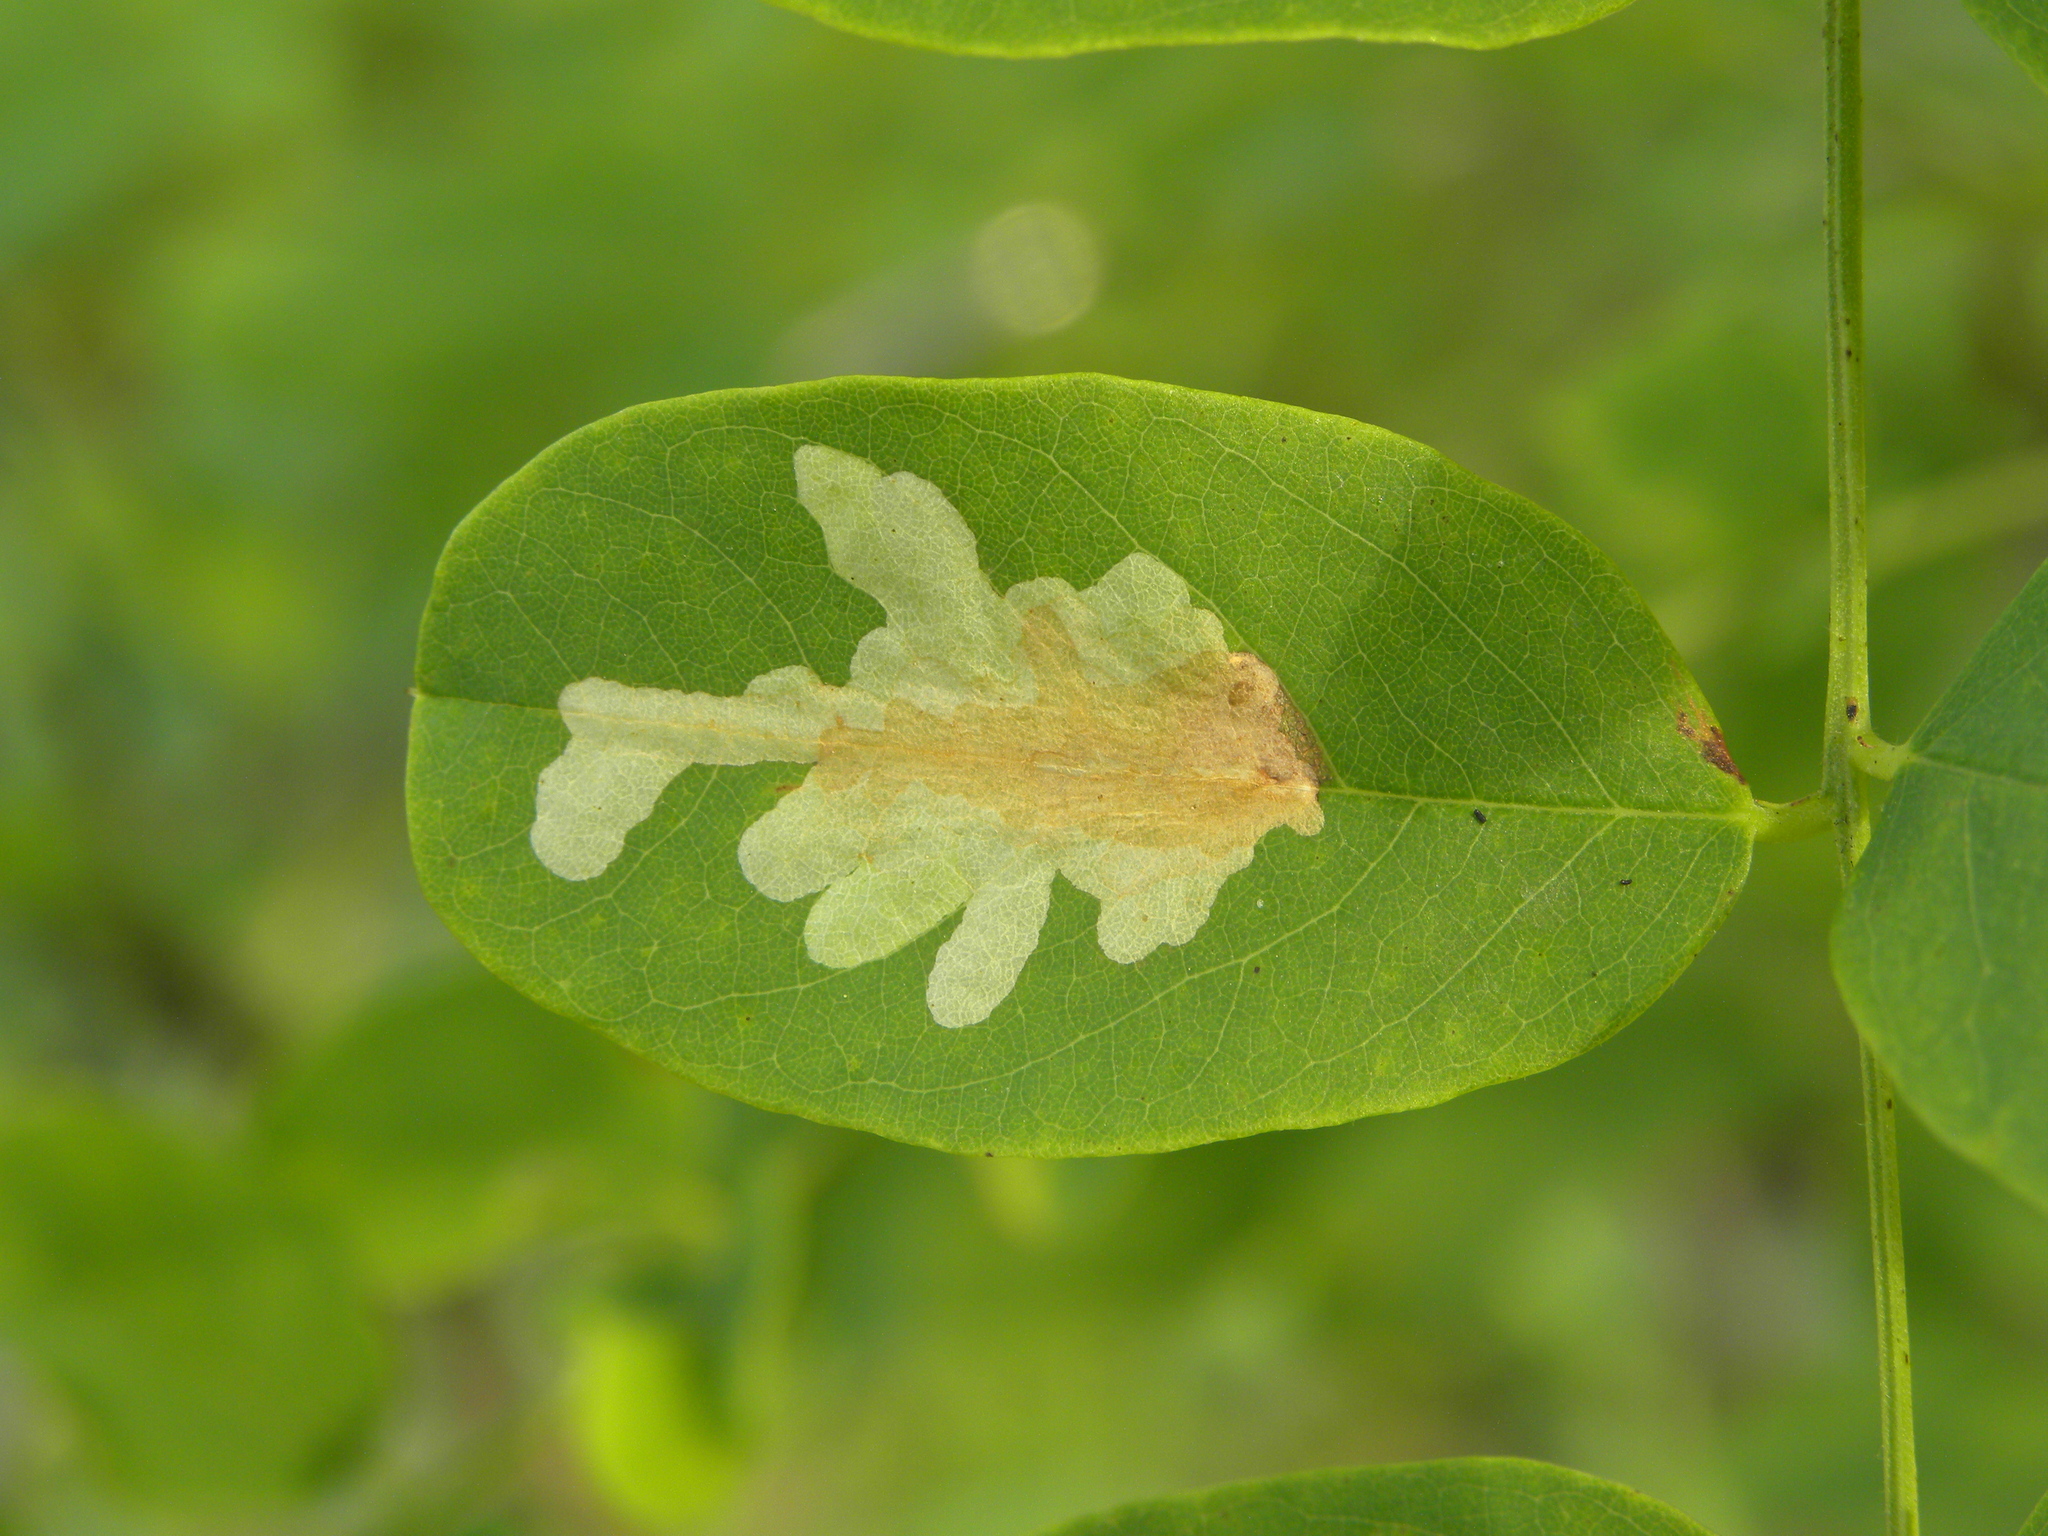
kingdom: Animalia
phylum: Arthropoda
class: Insecta
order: Lepidoptera
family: Gracillariidae
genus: Parectopa
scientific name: Parectopa robiniella
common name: Locust digitate leafminer
